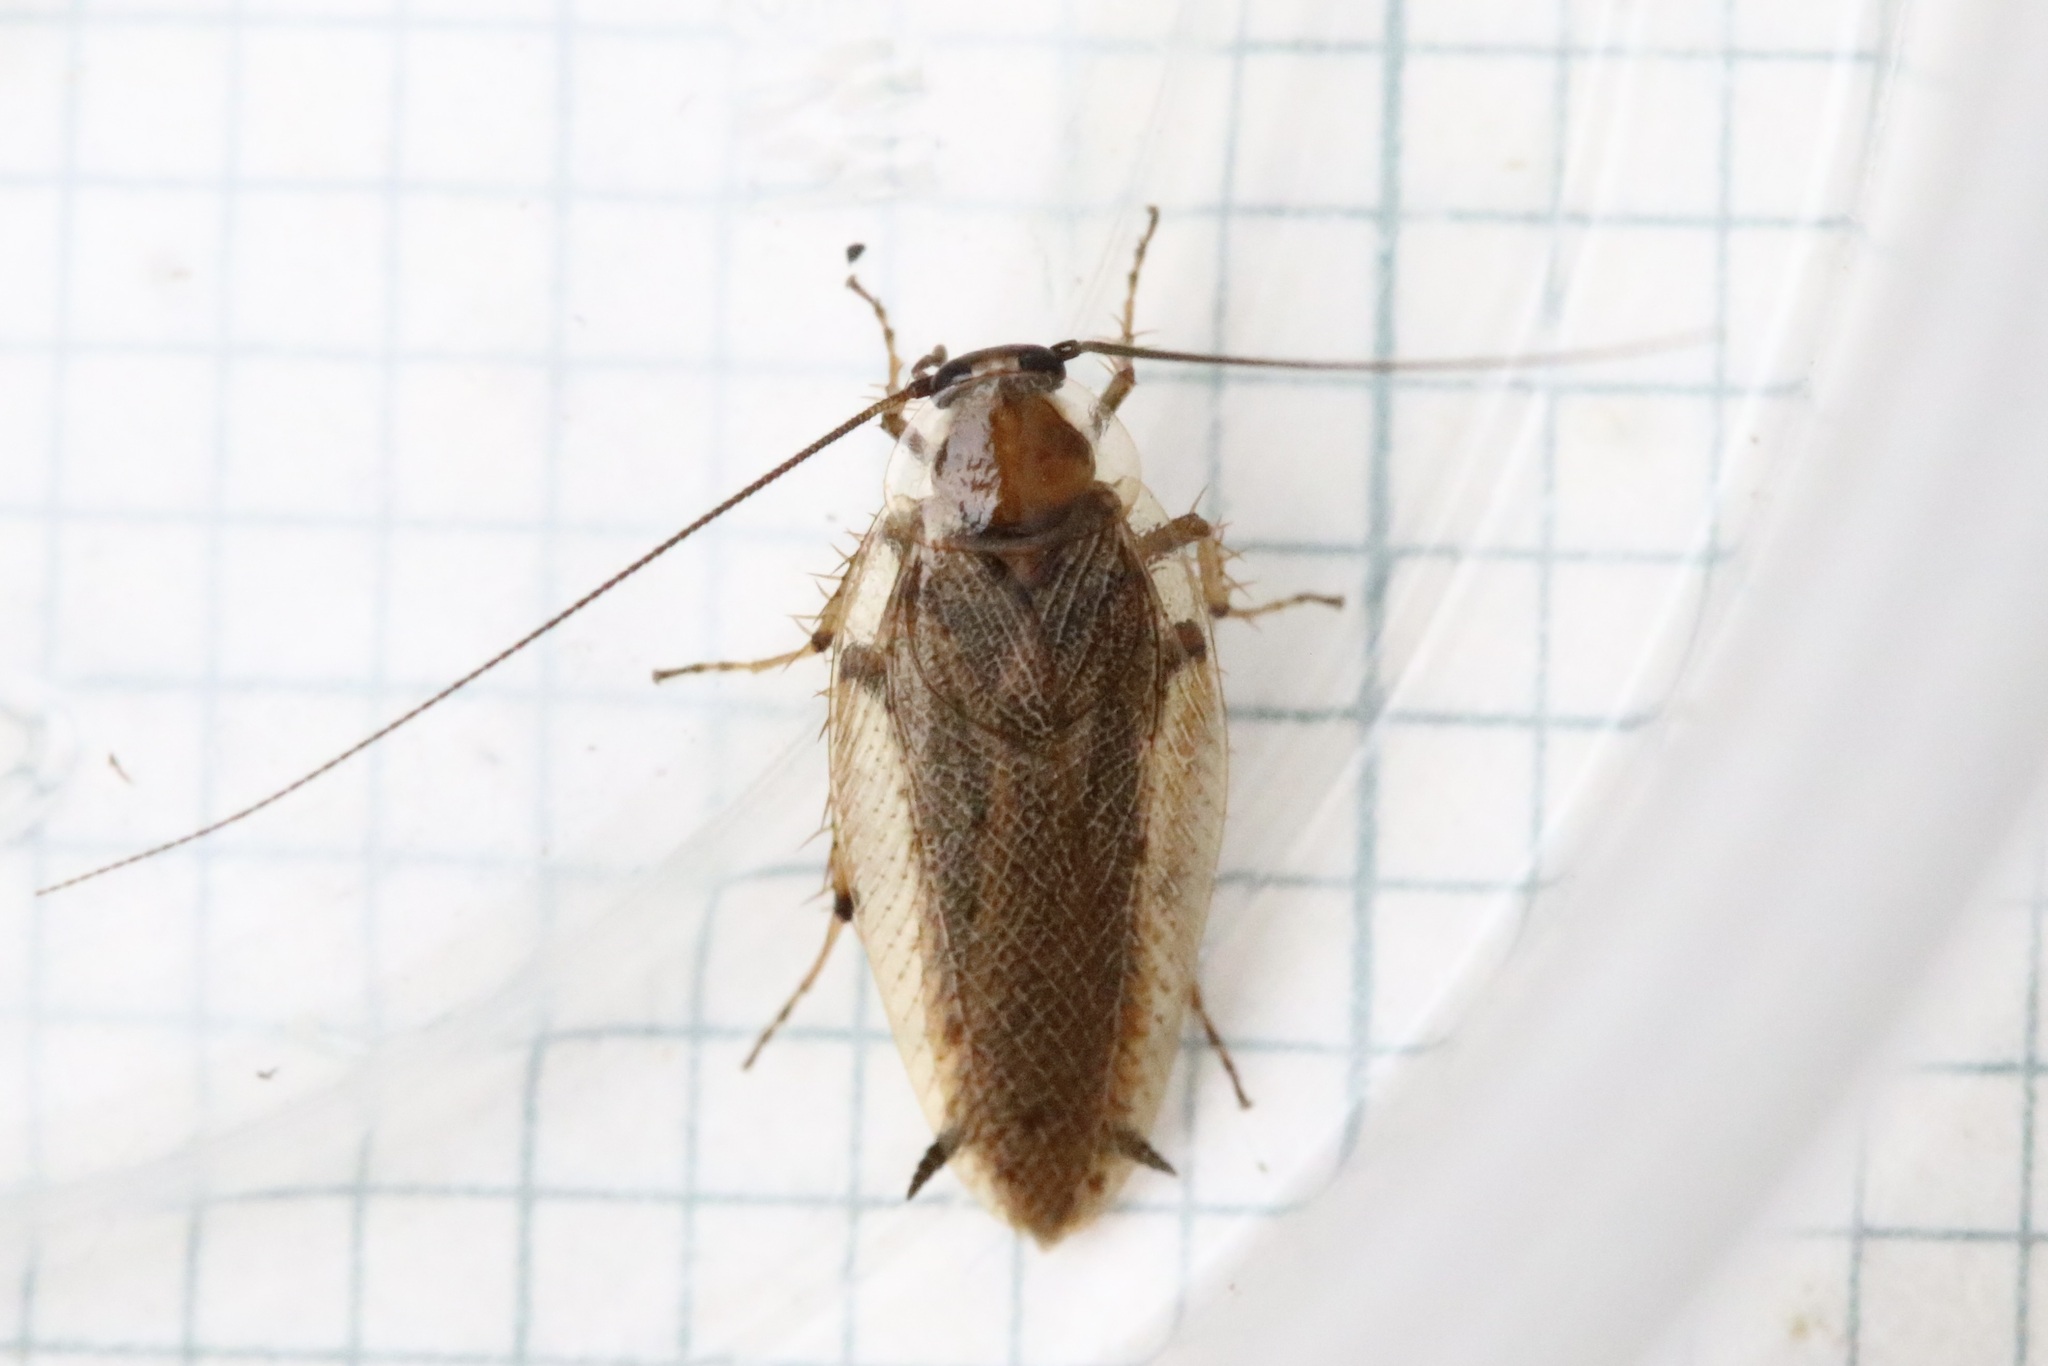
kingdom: Animalia
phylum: Arthropoda
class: Insecta
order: Blattodea
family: Ectobiidae
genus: Ectobius
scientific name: Ectobius vittiventris
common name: Garden cockroach
